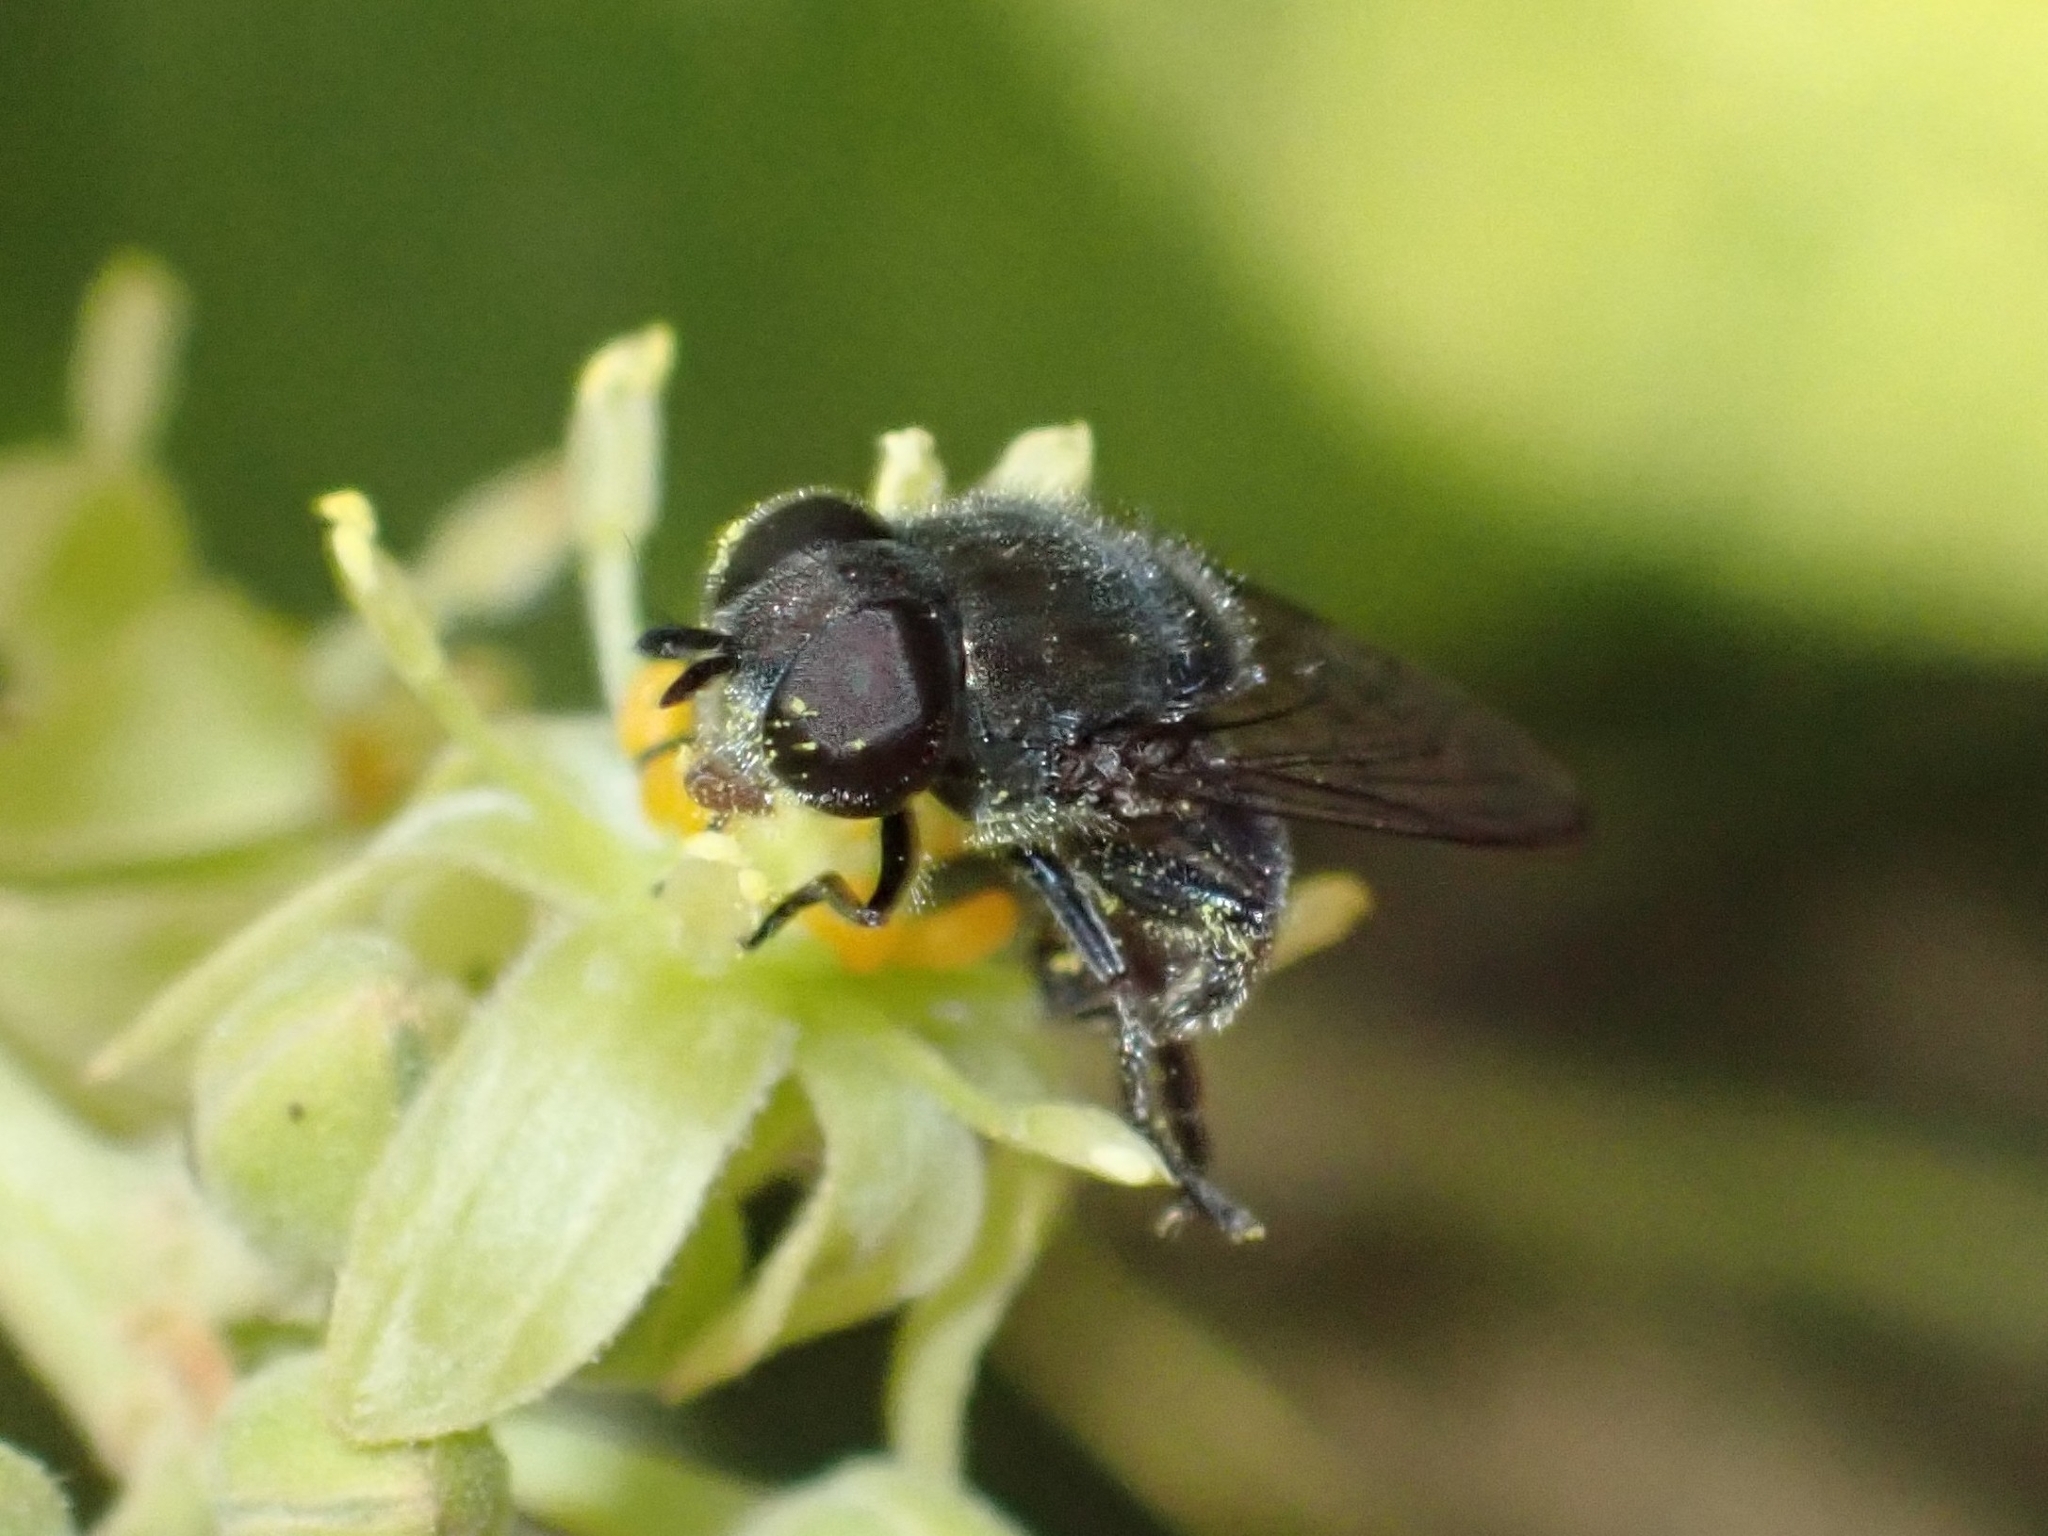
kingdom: Animalia
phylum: Arthropoda
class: Insecta
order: Diptera
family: Syrphidae
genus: Eumerus
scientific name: Eumerus latitarsis
